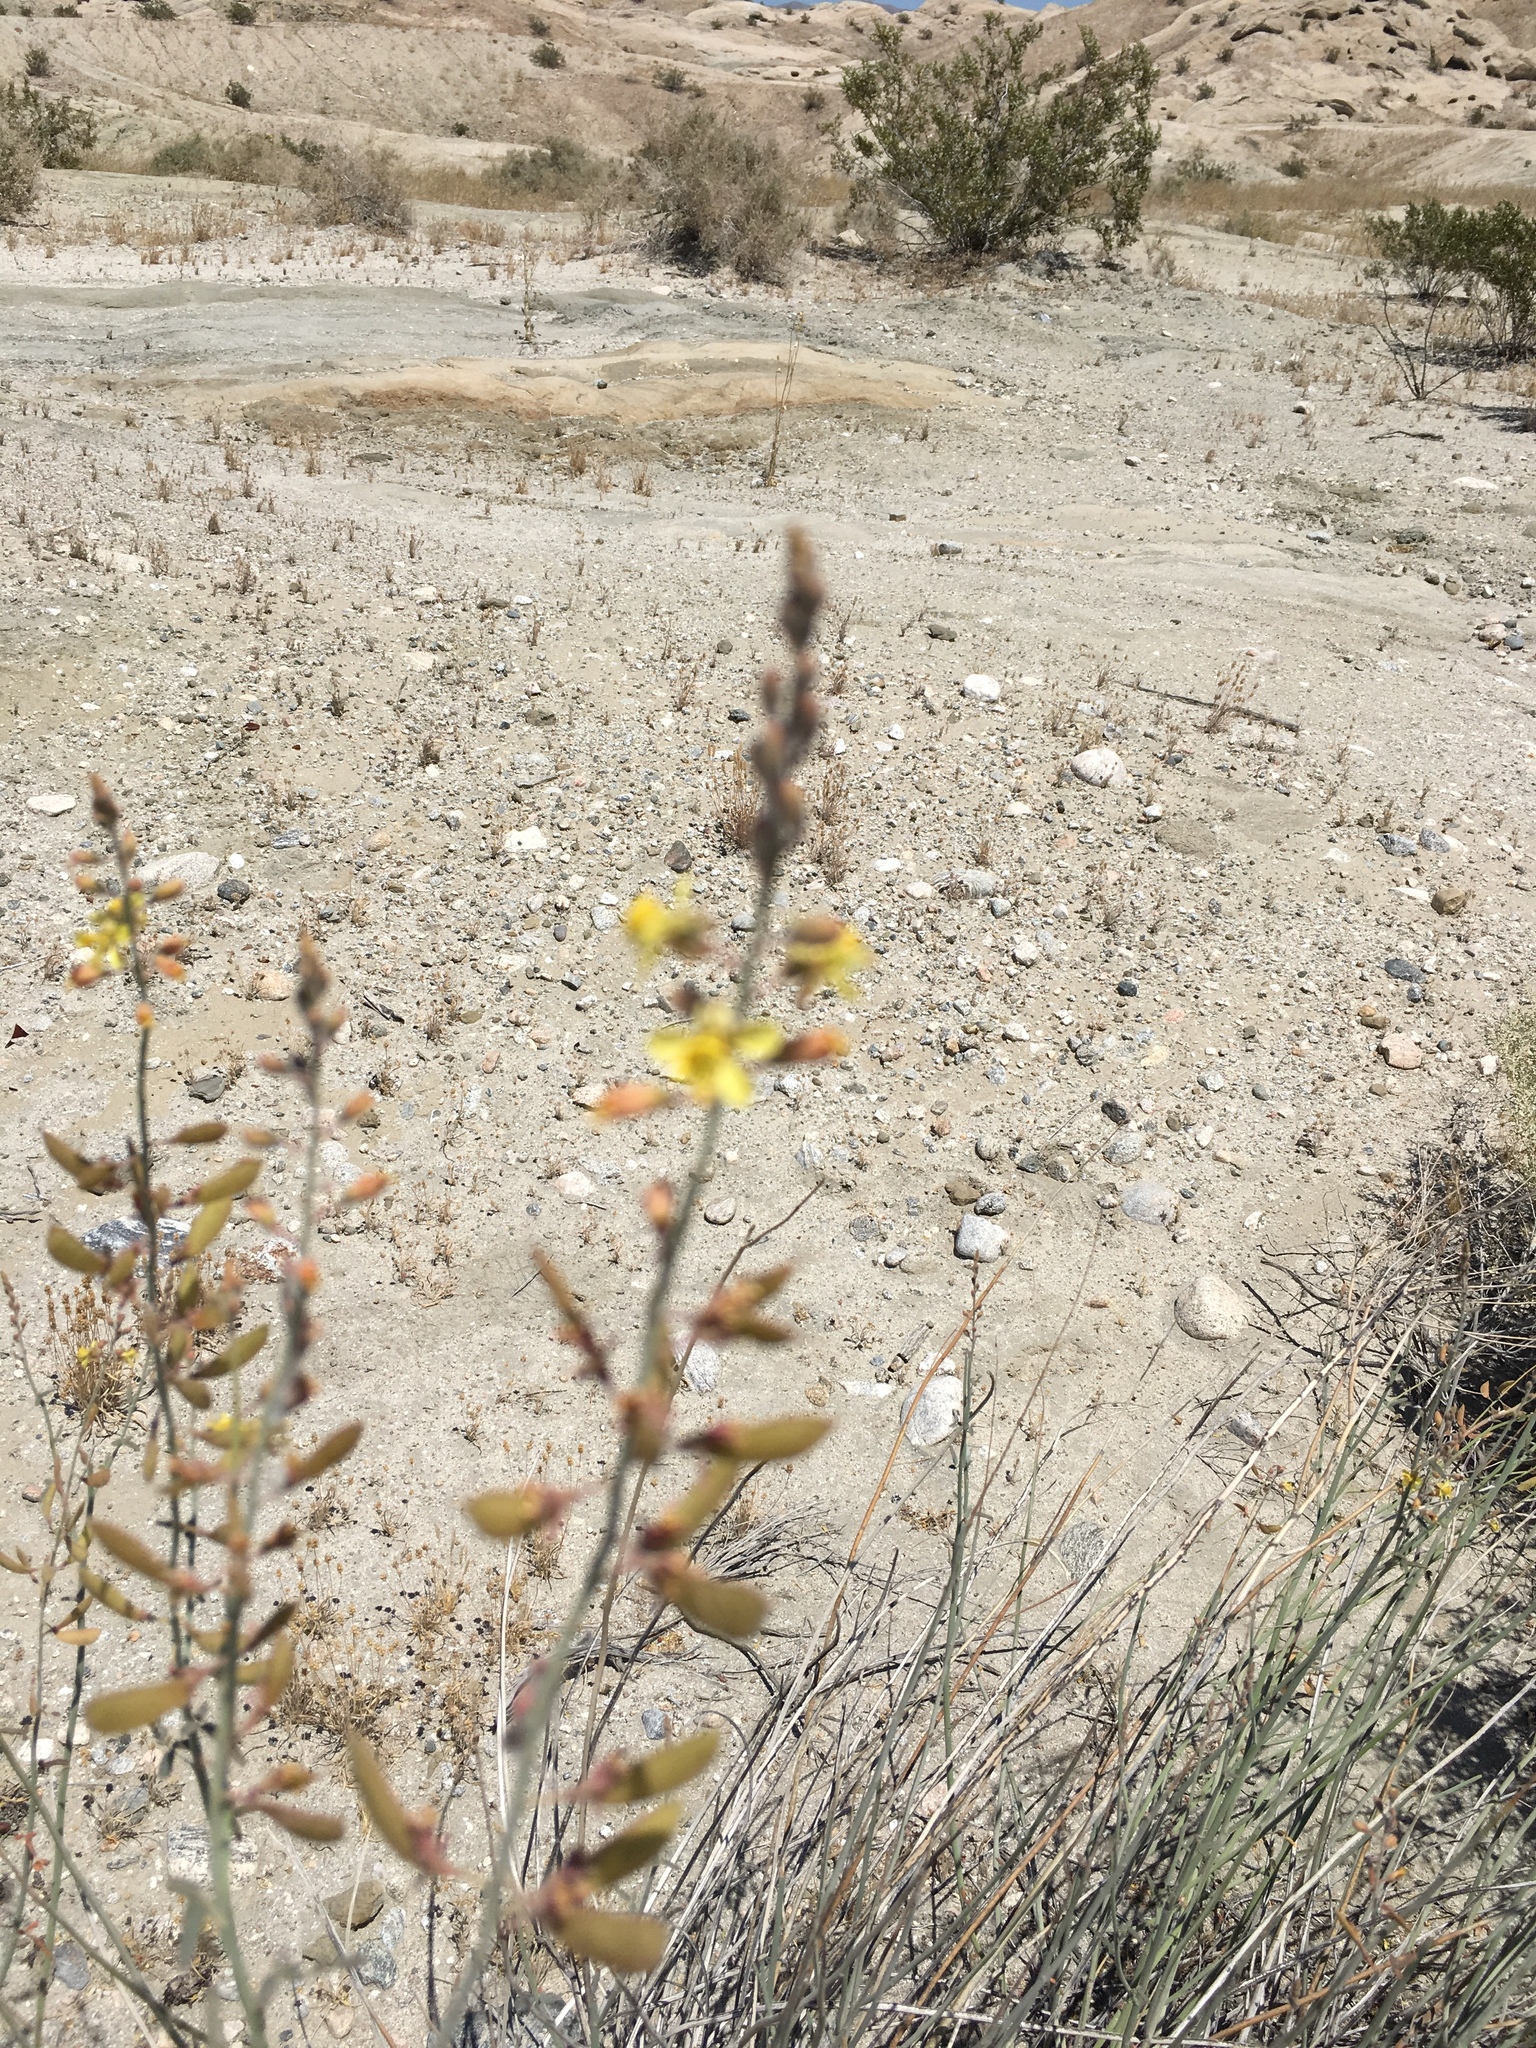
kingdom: Plantae
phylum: Tracheophyta
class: Magnoliopsida
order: Fabales
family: Fabaceae
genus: Hoffmannseggia
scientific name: Hoffmannseggia microphylla
